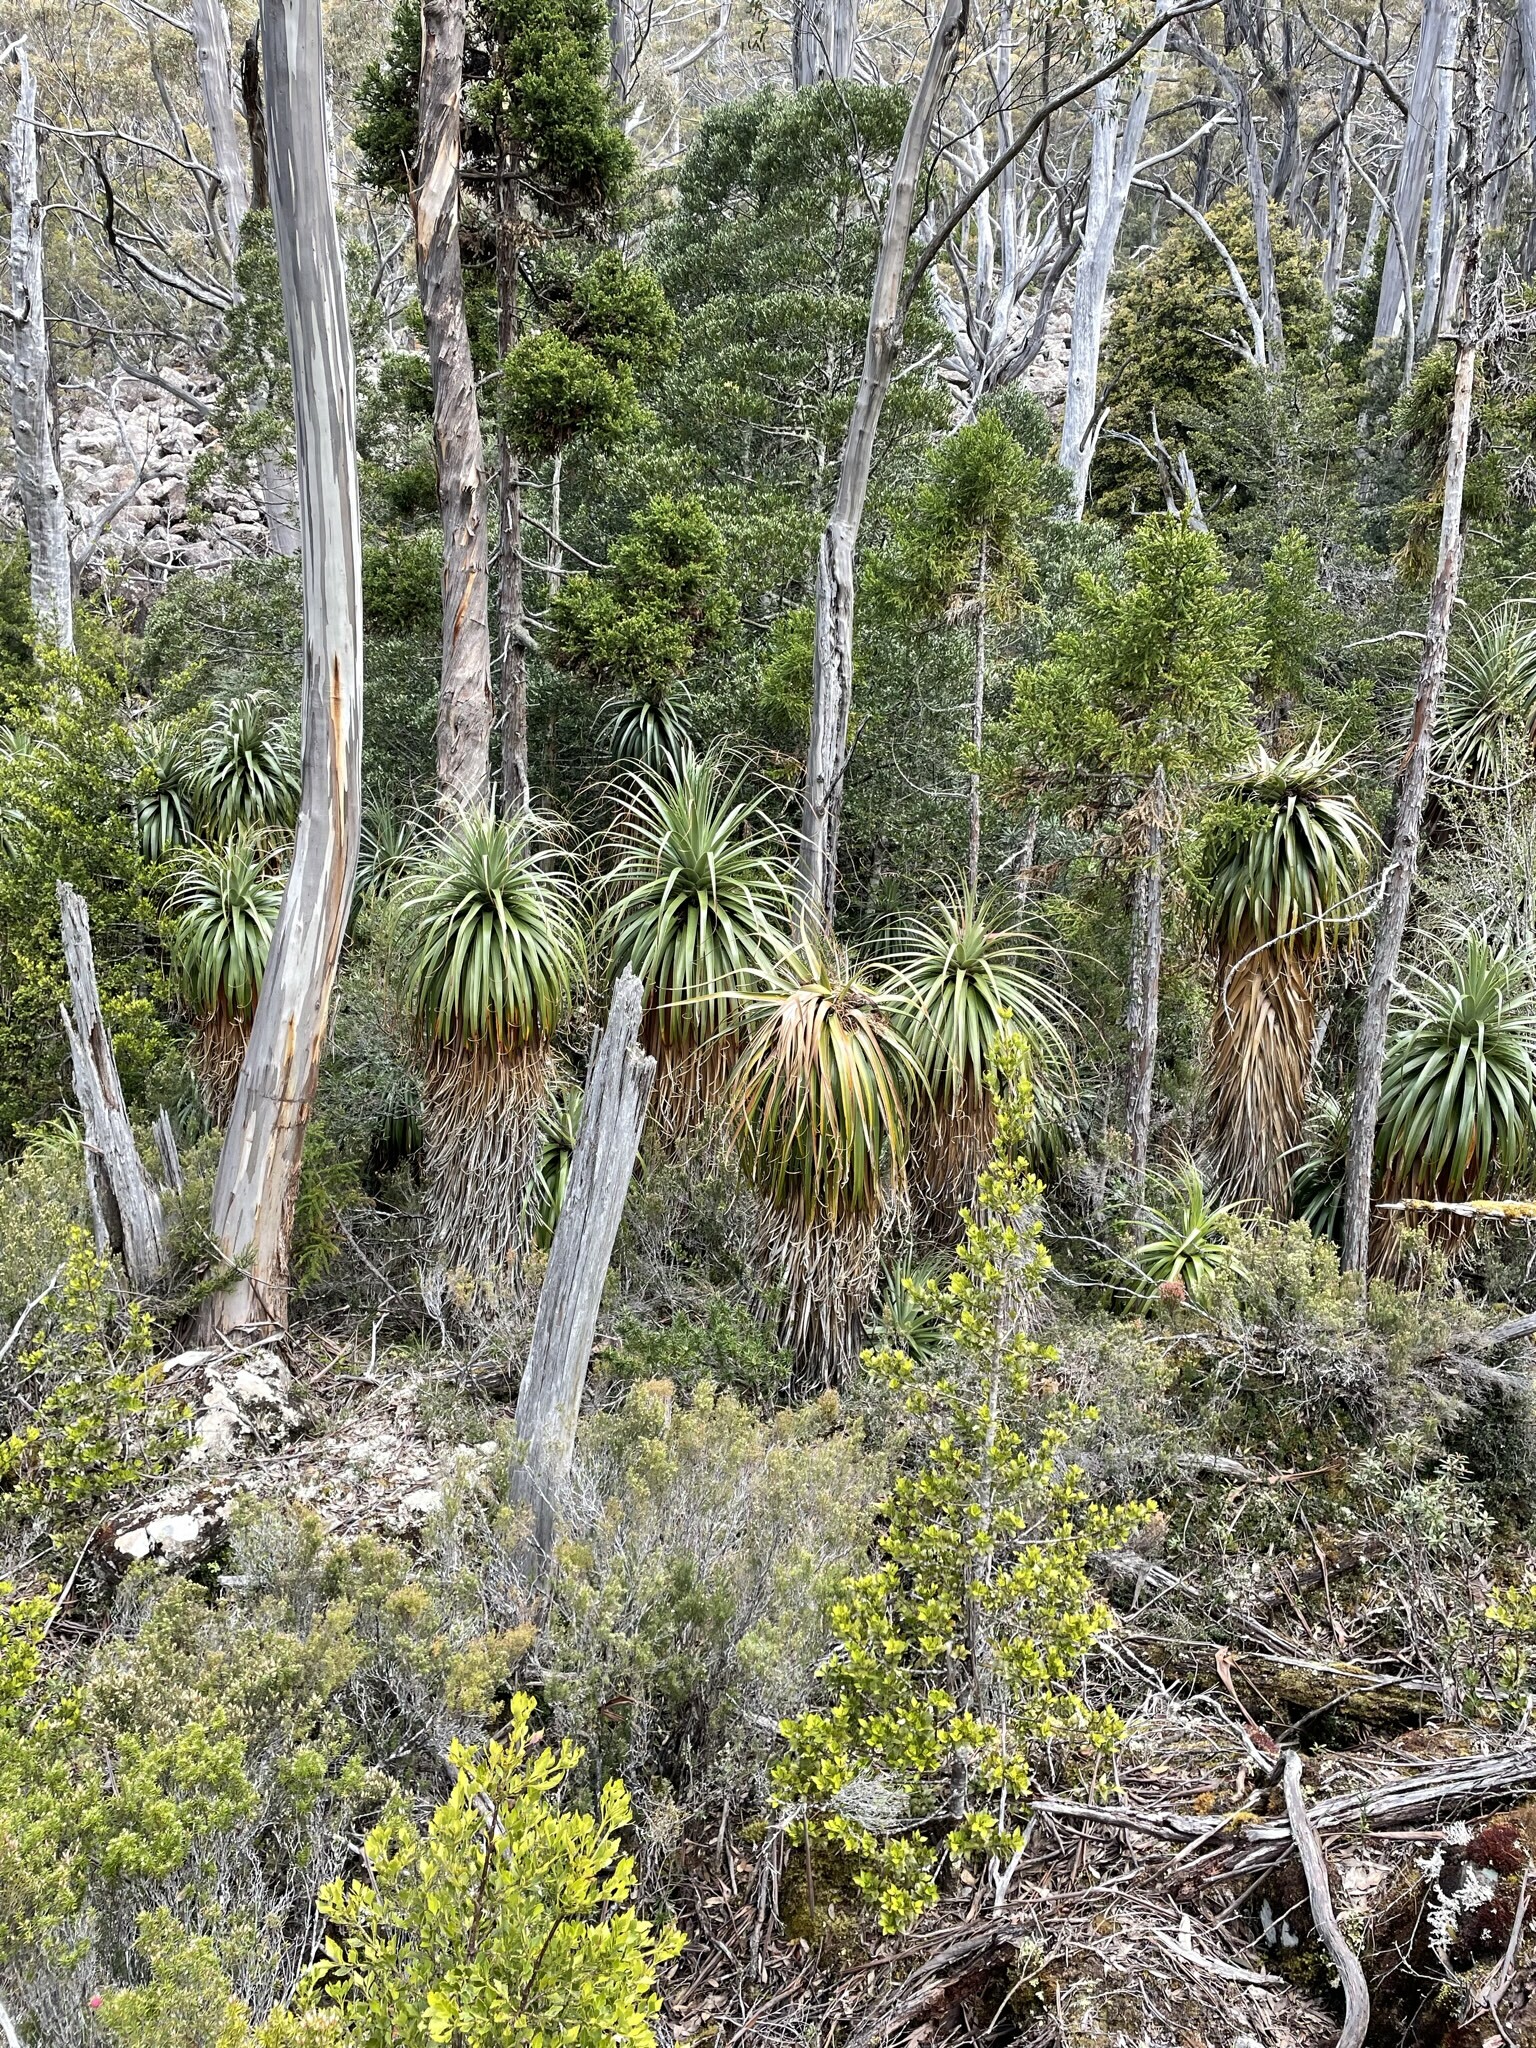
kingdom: Plantae
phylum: Tracheophyta
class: Magnoliopsida
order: Ericales
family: Ericaceae
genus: Dracophyllum
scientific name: Dracophyllum pandanifolium
